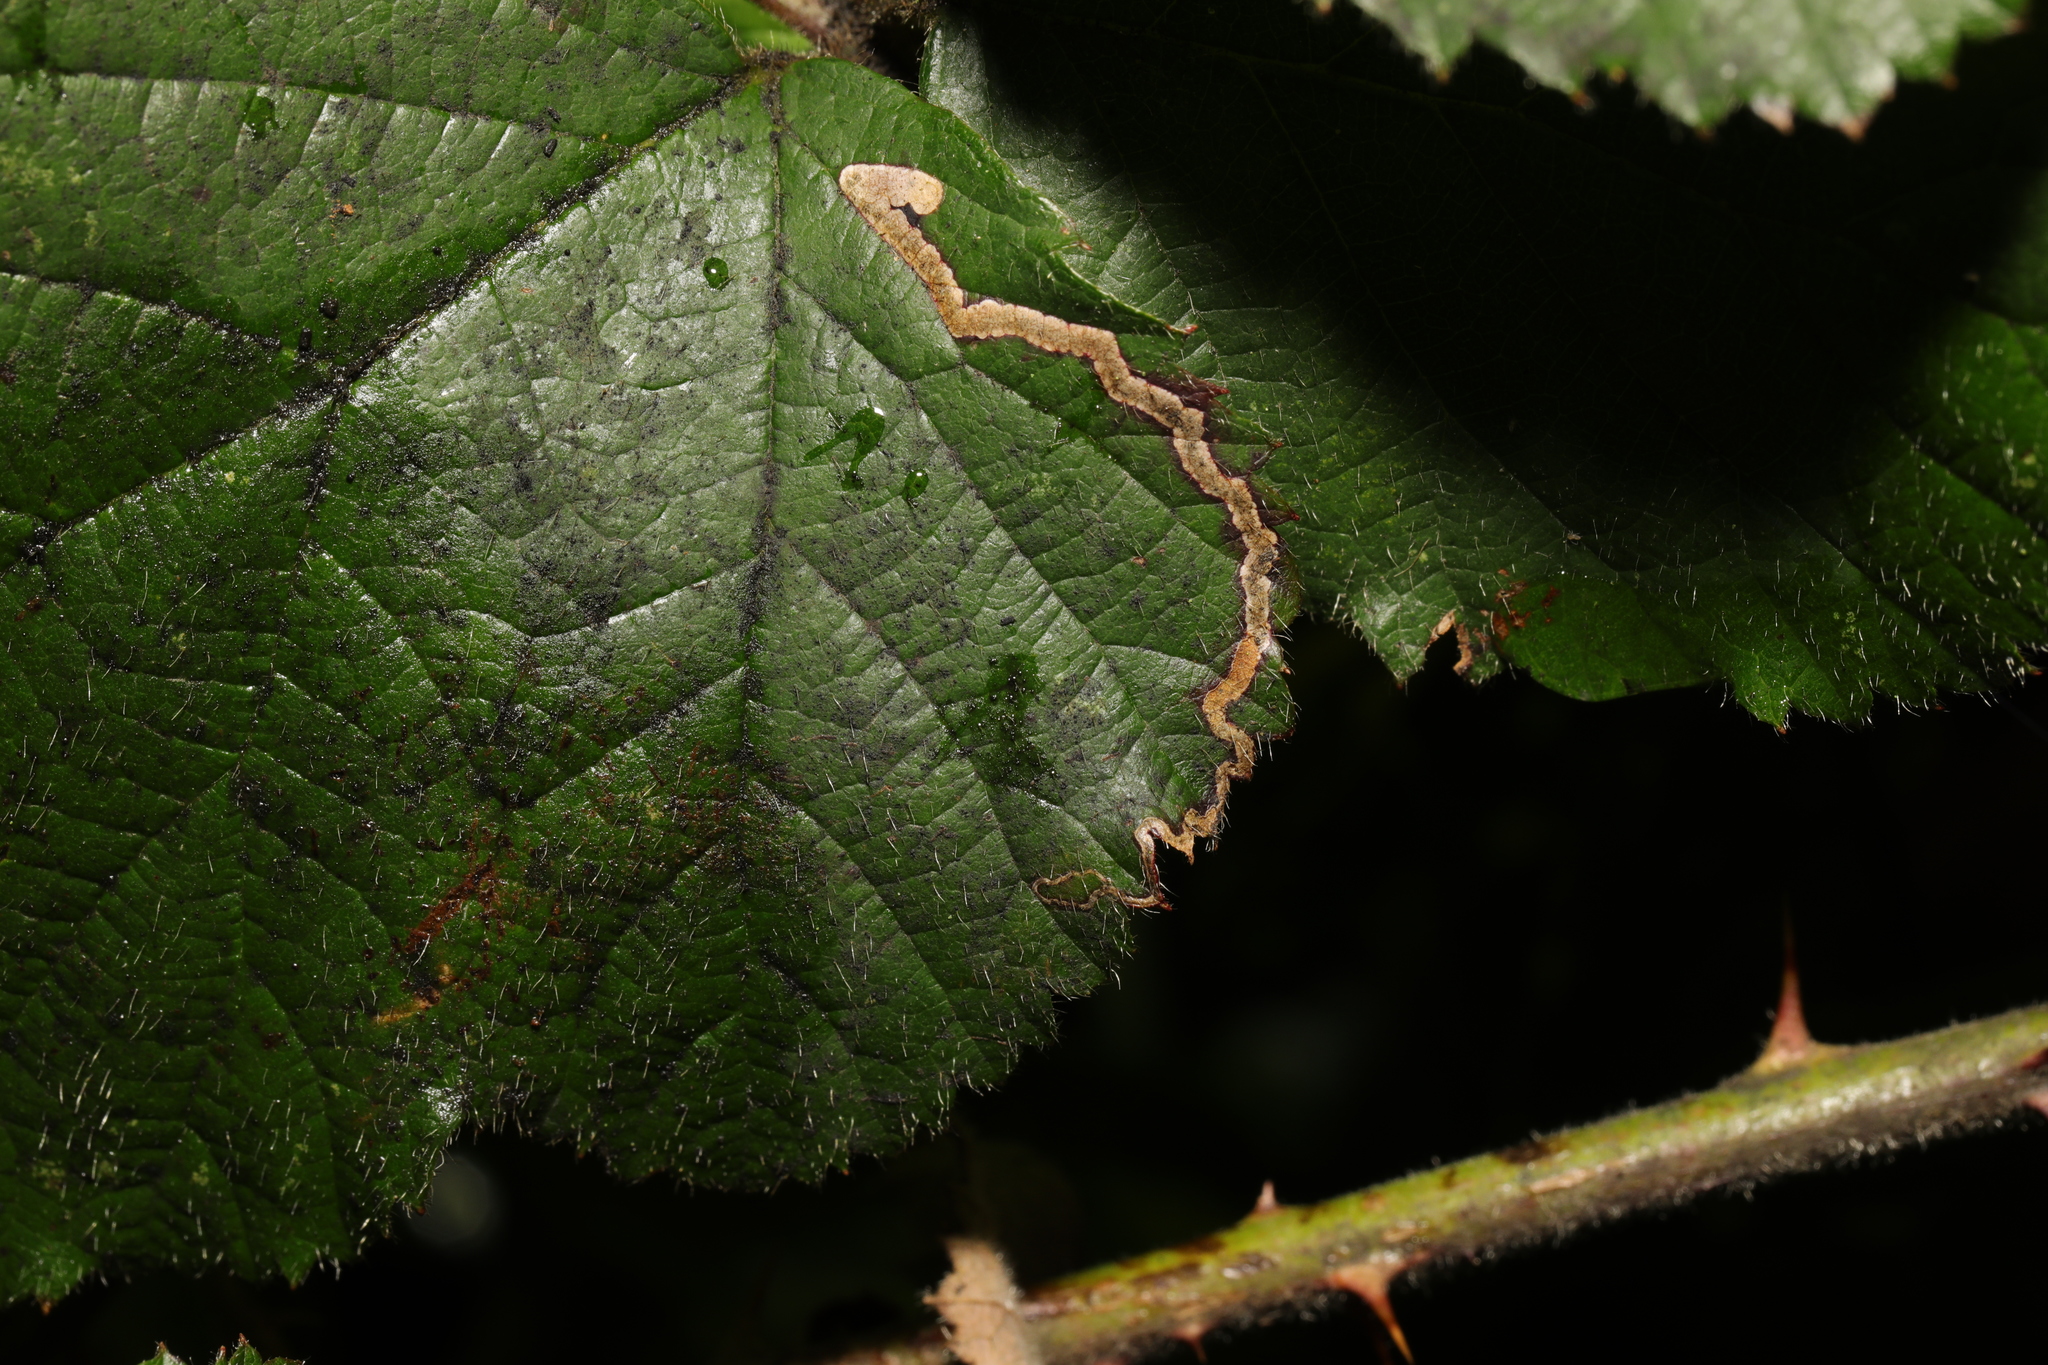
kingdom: Animalia
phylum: Arthropoda
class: Insecta
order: Lepidoptera
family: Nepticulidae
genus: Stigmella
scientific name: Stigmella aurella
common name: Golden pigmy
